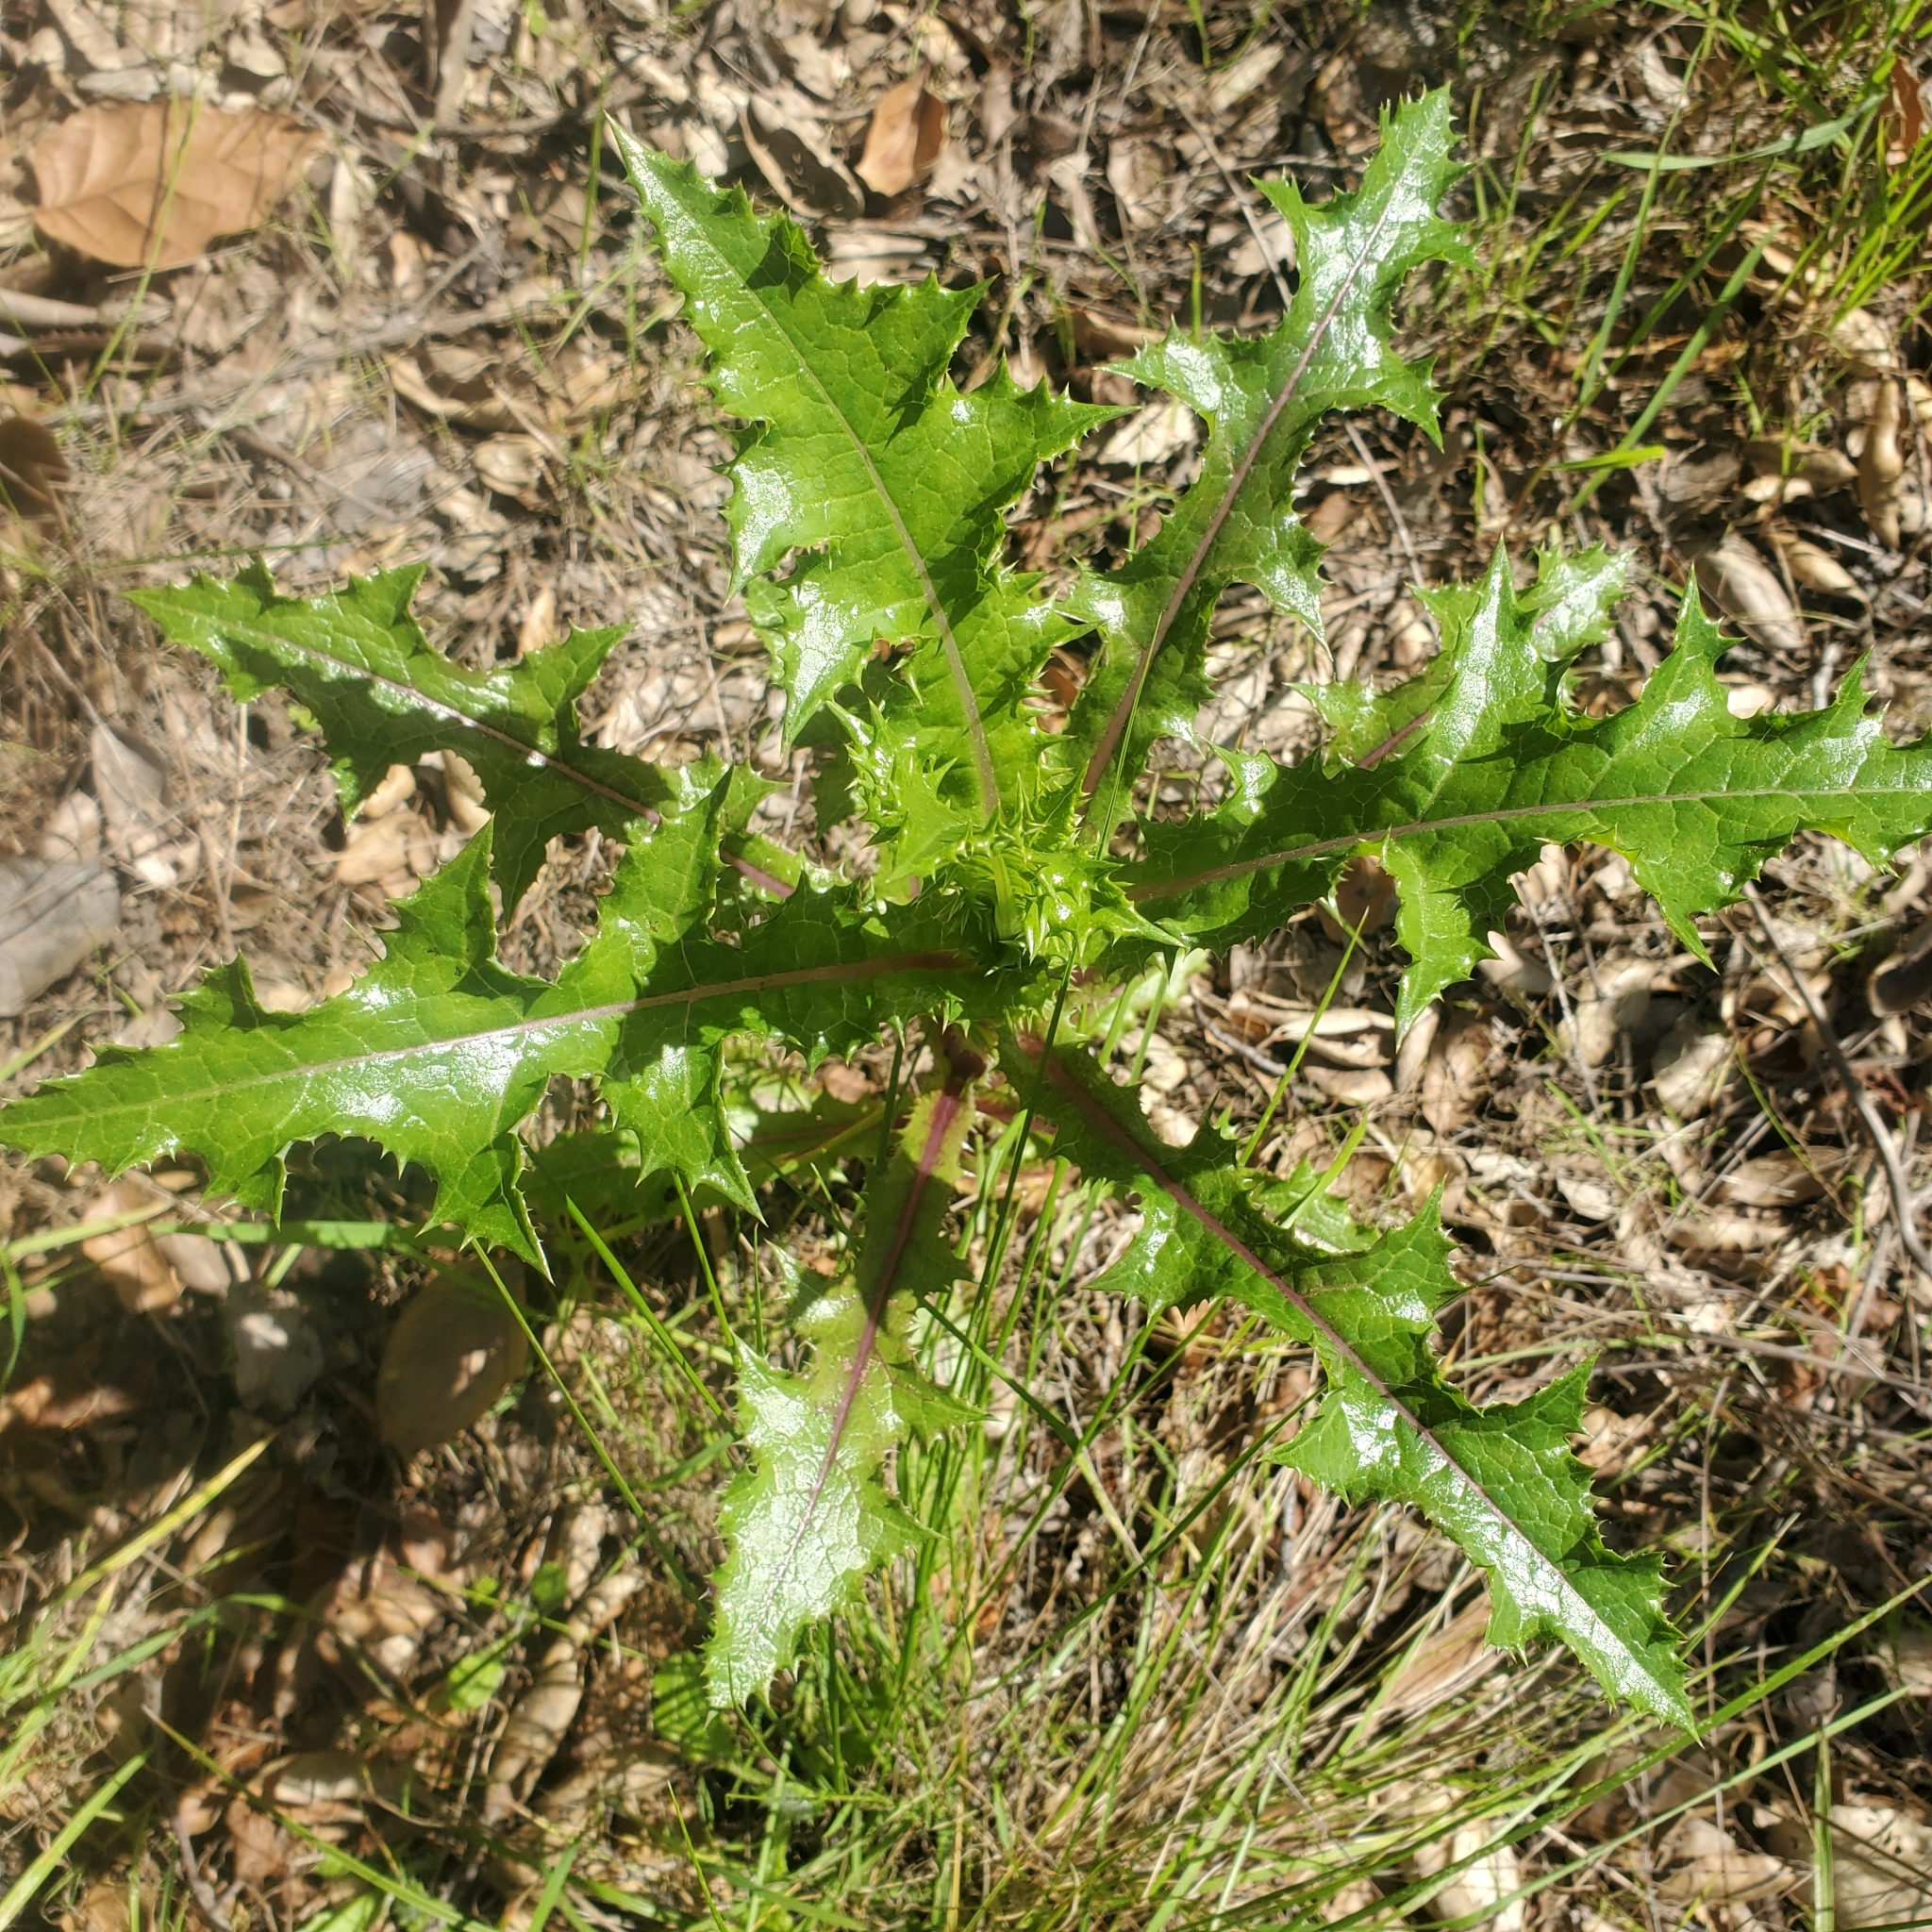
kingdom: Plantae
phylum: Tracheophyta
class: Magnoliopsida
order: Asterales
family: Asteraceae
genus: Sonchus
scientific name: Sonchus asper
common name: Prickly sow-thistle
